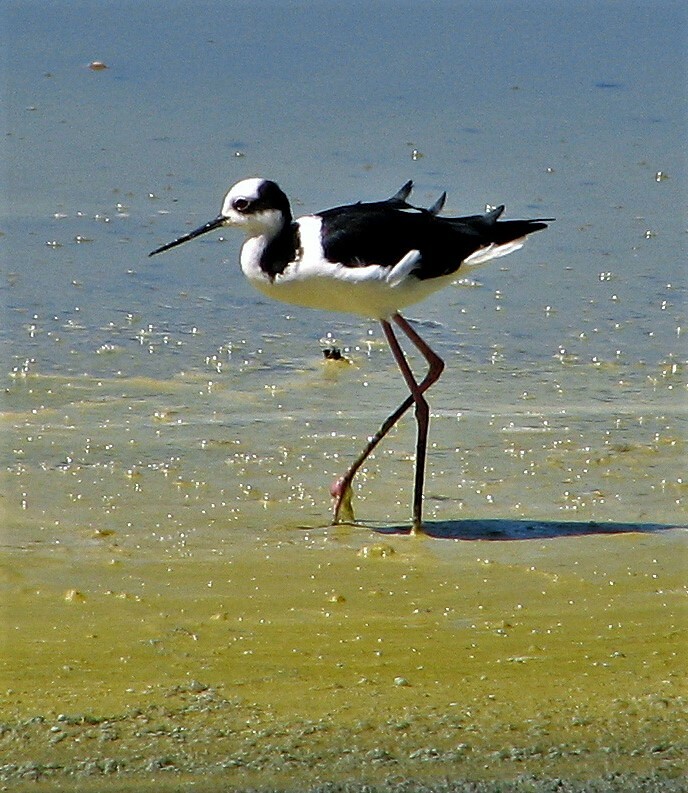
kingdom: Animalia
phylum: Chordata
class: Aves
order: Charadriiformes
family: Recurvirostridae
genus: Himantopus
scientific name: Himantopus mexicanus
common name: Black-necked stilt
